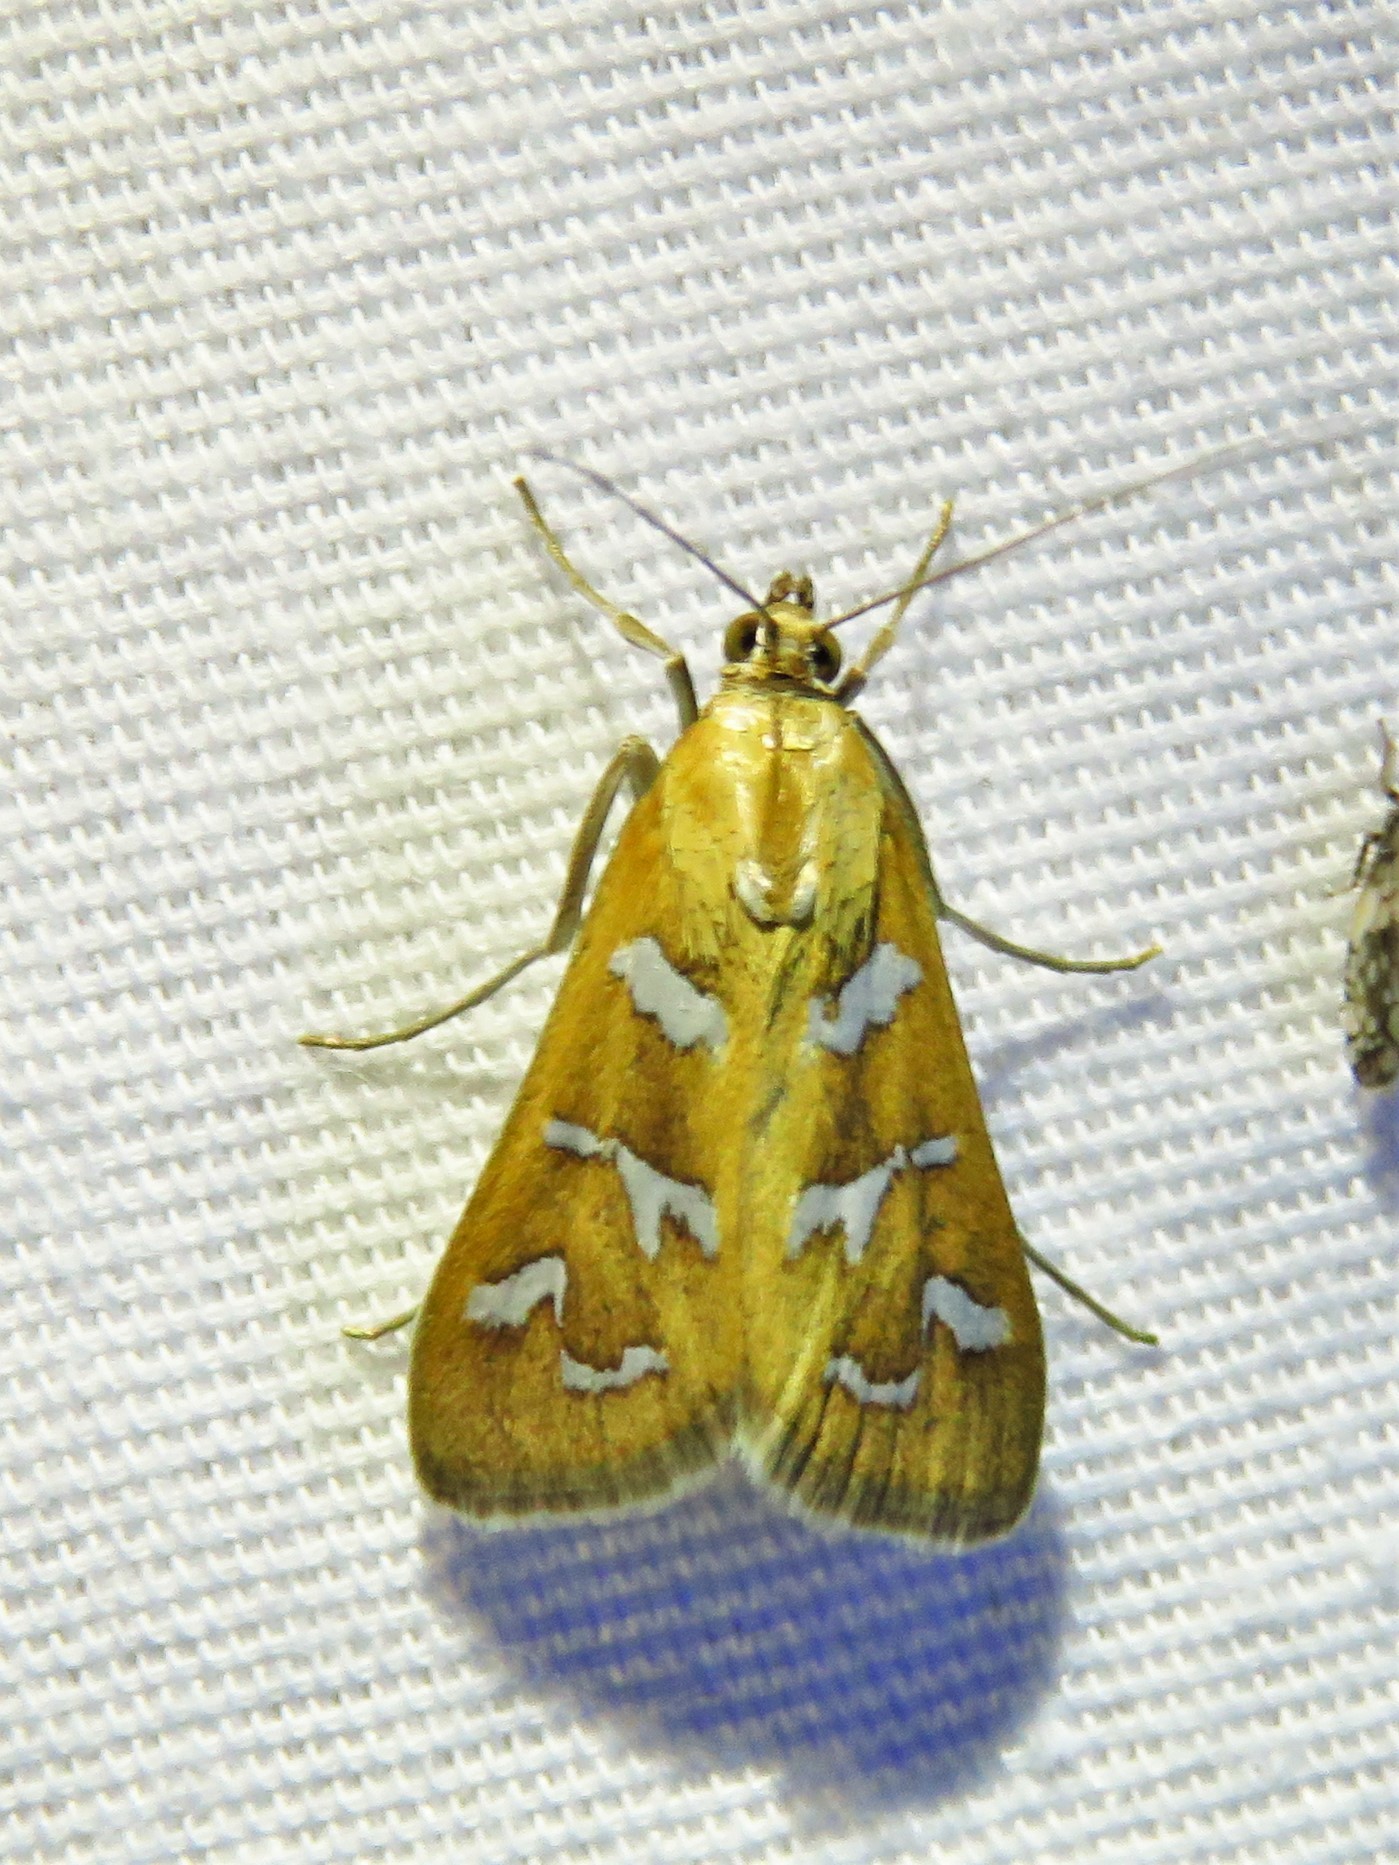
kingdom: Animalia
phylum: Arthropoda
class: Insecta
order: Lepidoptera
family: Crambidae
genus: Diastictis
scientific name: Diastictis fracturalis
